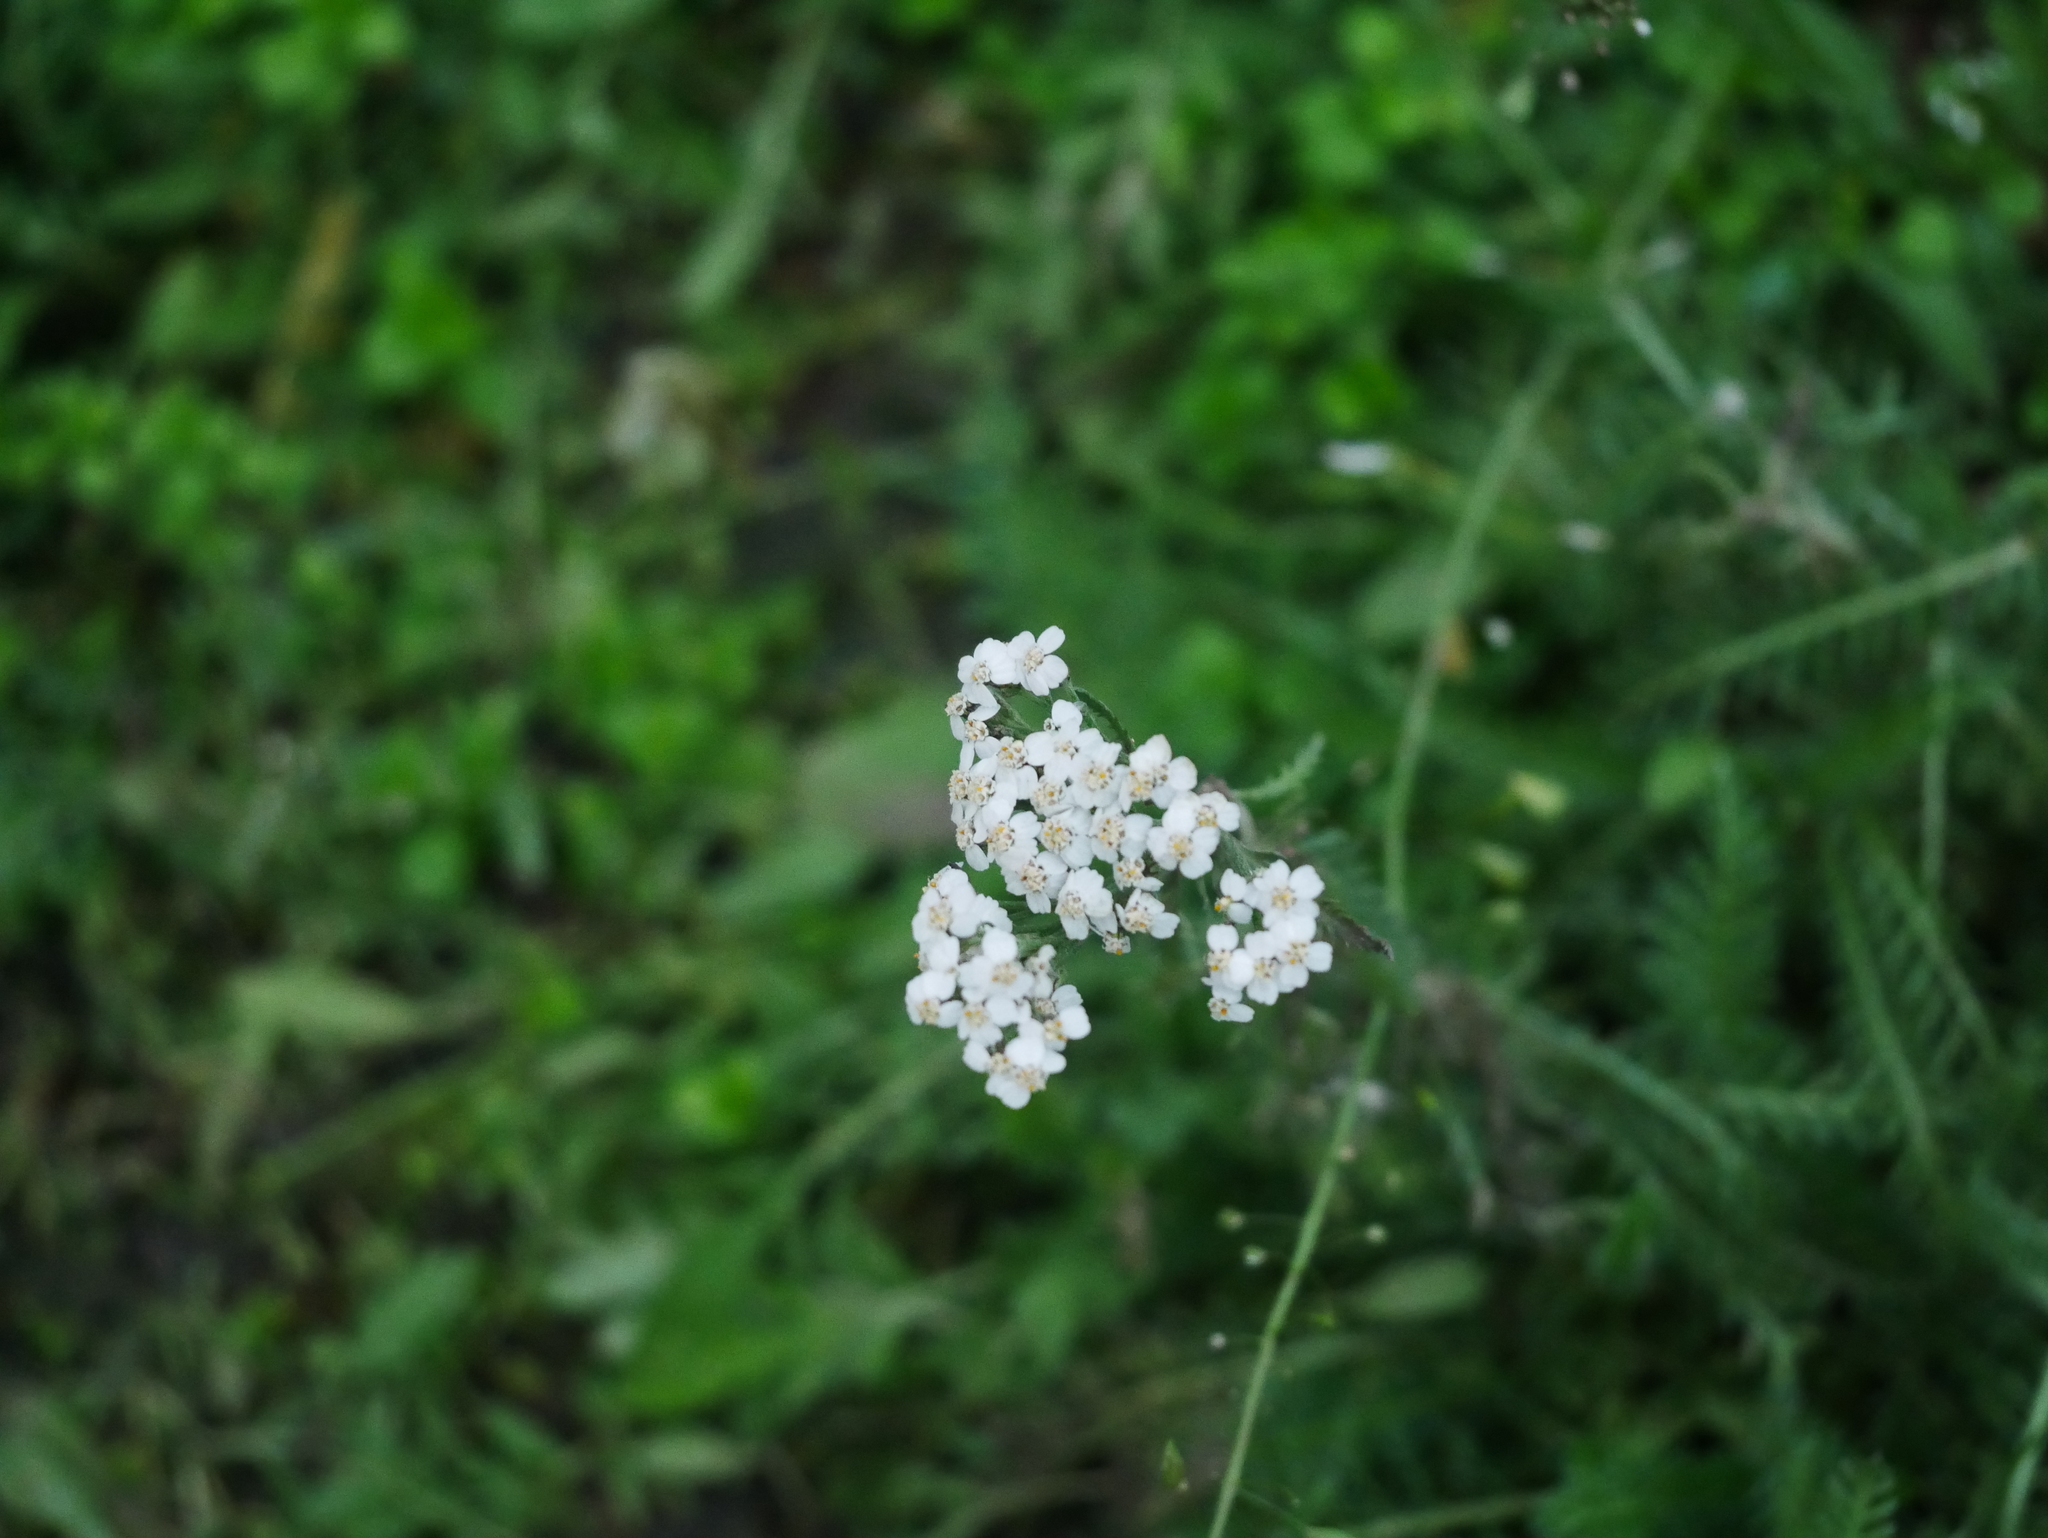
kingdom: Plantae
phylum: Tracheophyta
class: Magnoliopsida
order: Asterales
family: Asteraceae
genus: Achillea
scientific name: Achillea millefolium
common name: Yarrow
